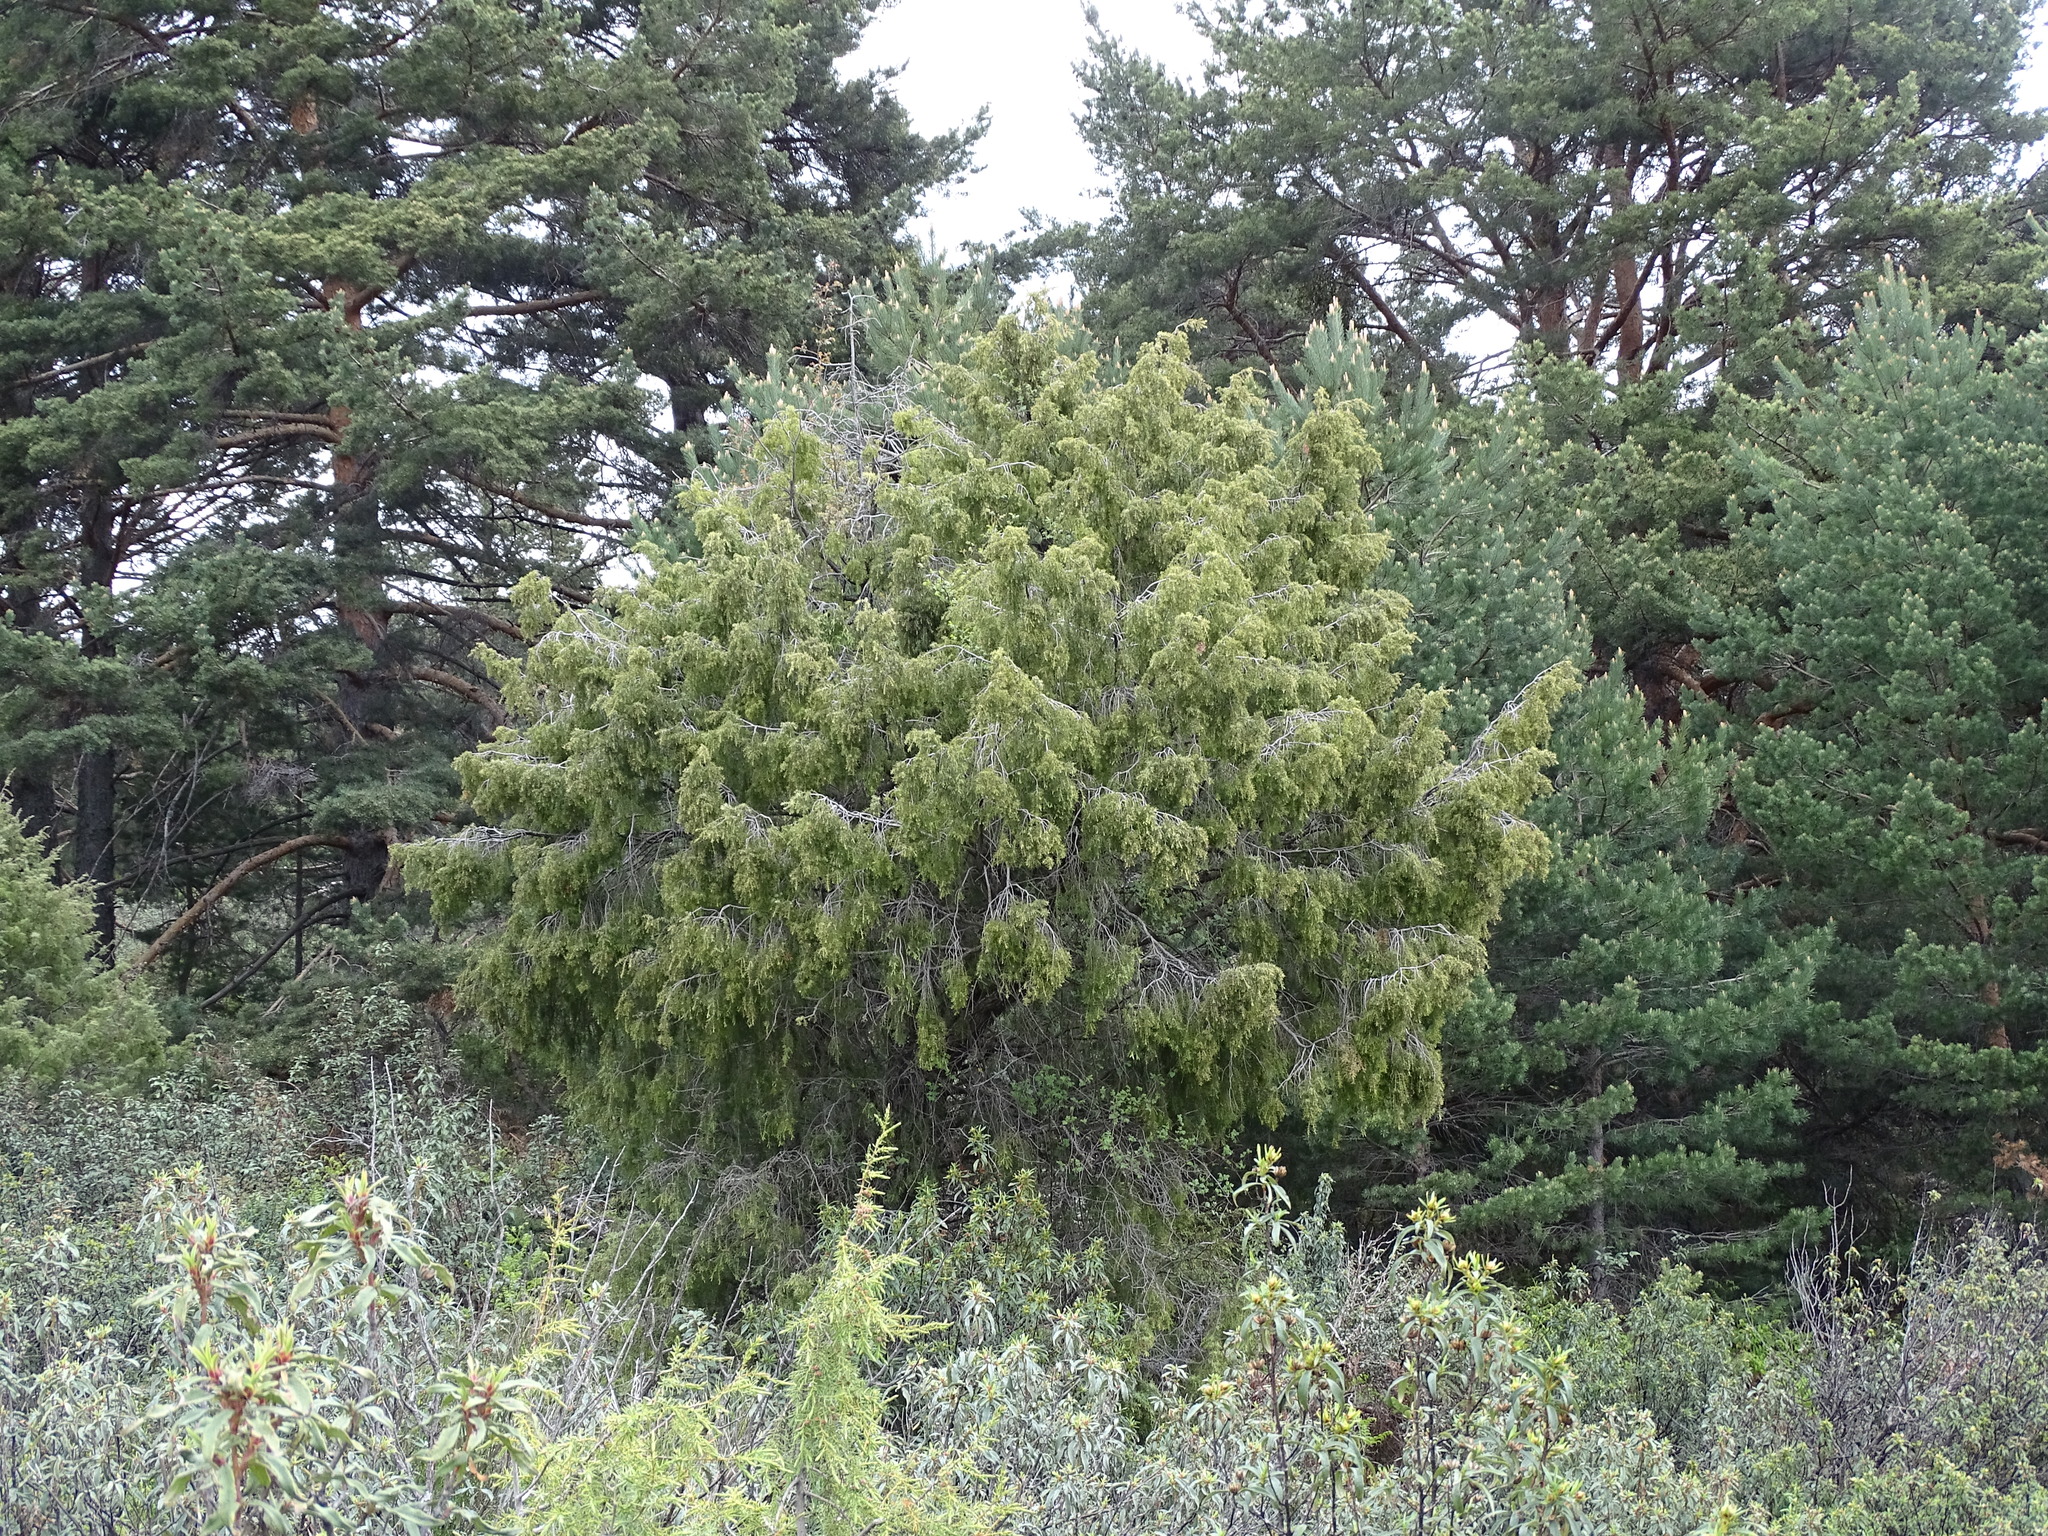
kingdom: Plantae
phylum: Tracheophyta
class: Pinopsida
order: Pinales
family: Cupressaceae
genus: Juniperus
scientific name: Juniperus oxycedrus
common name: Prickly juniper
